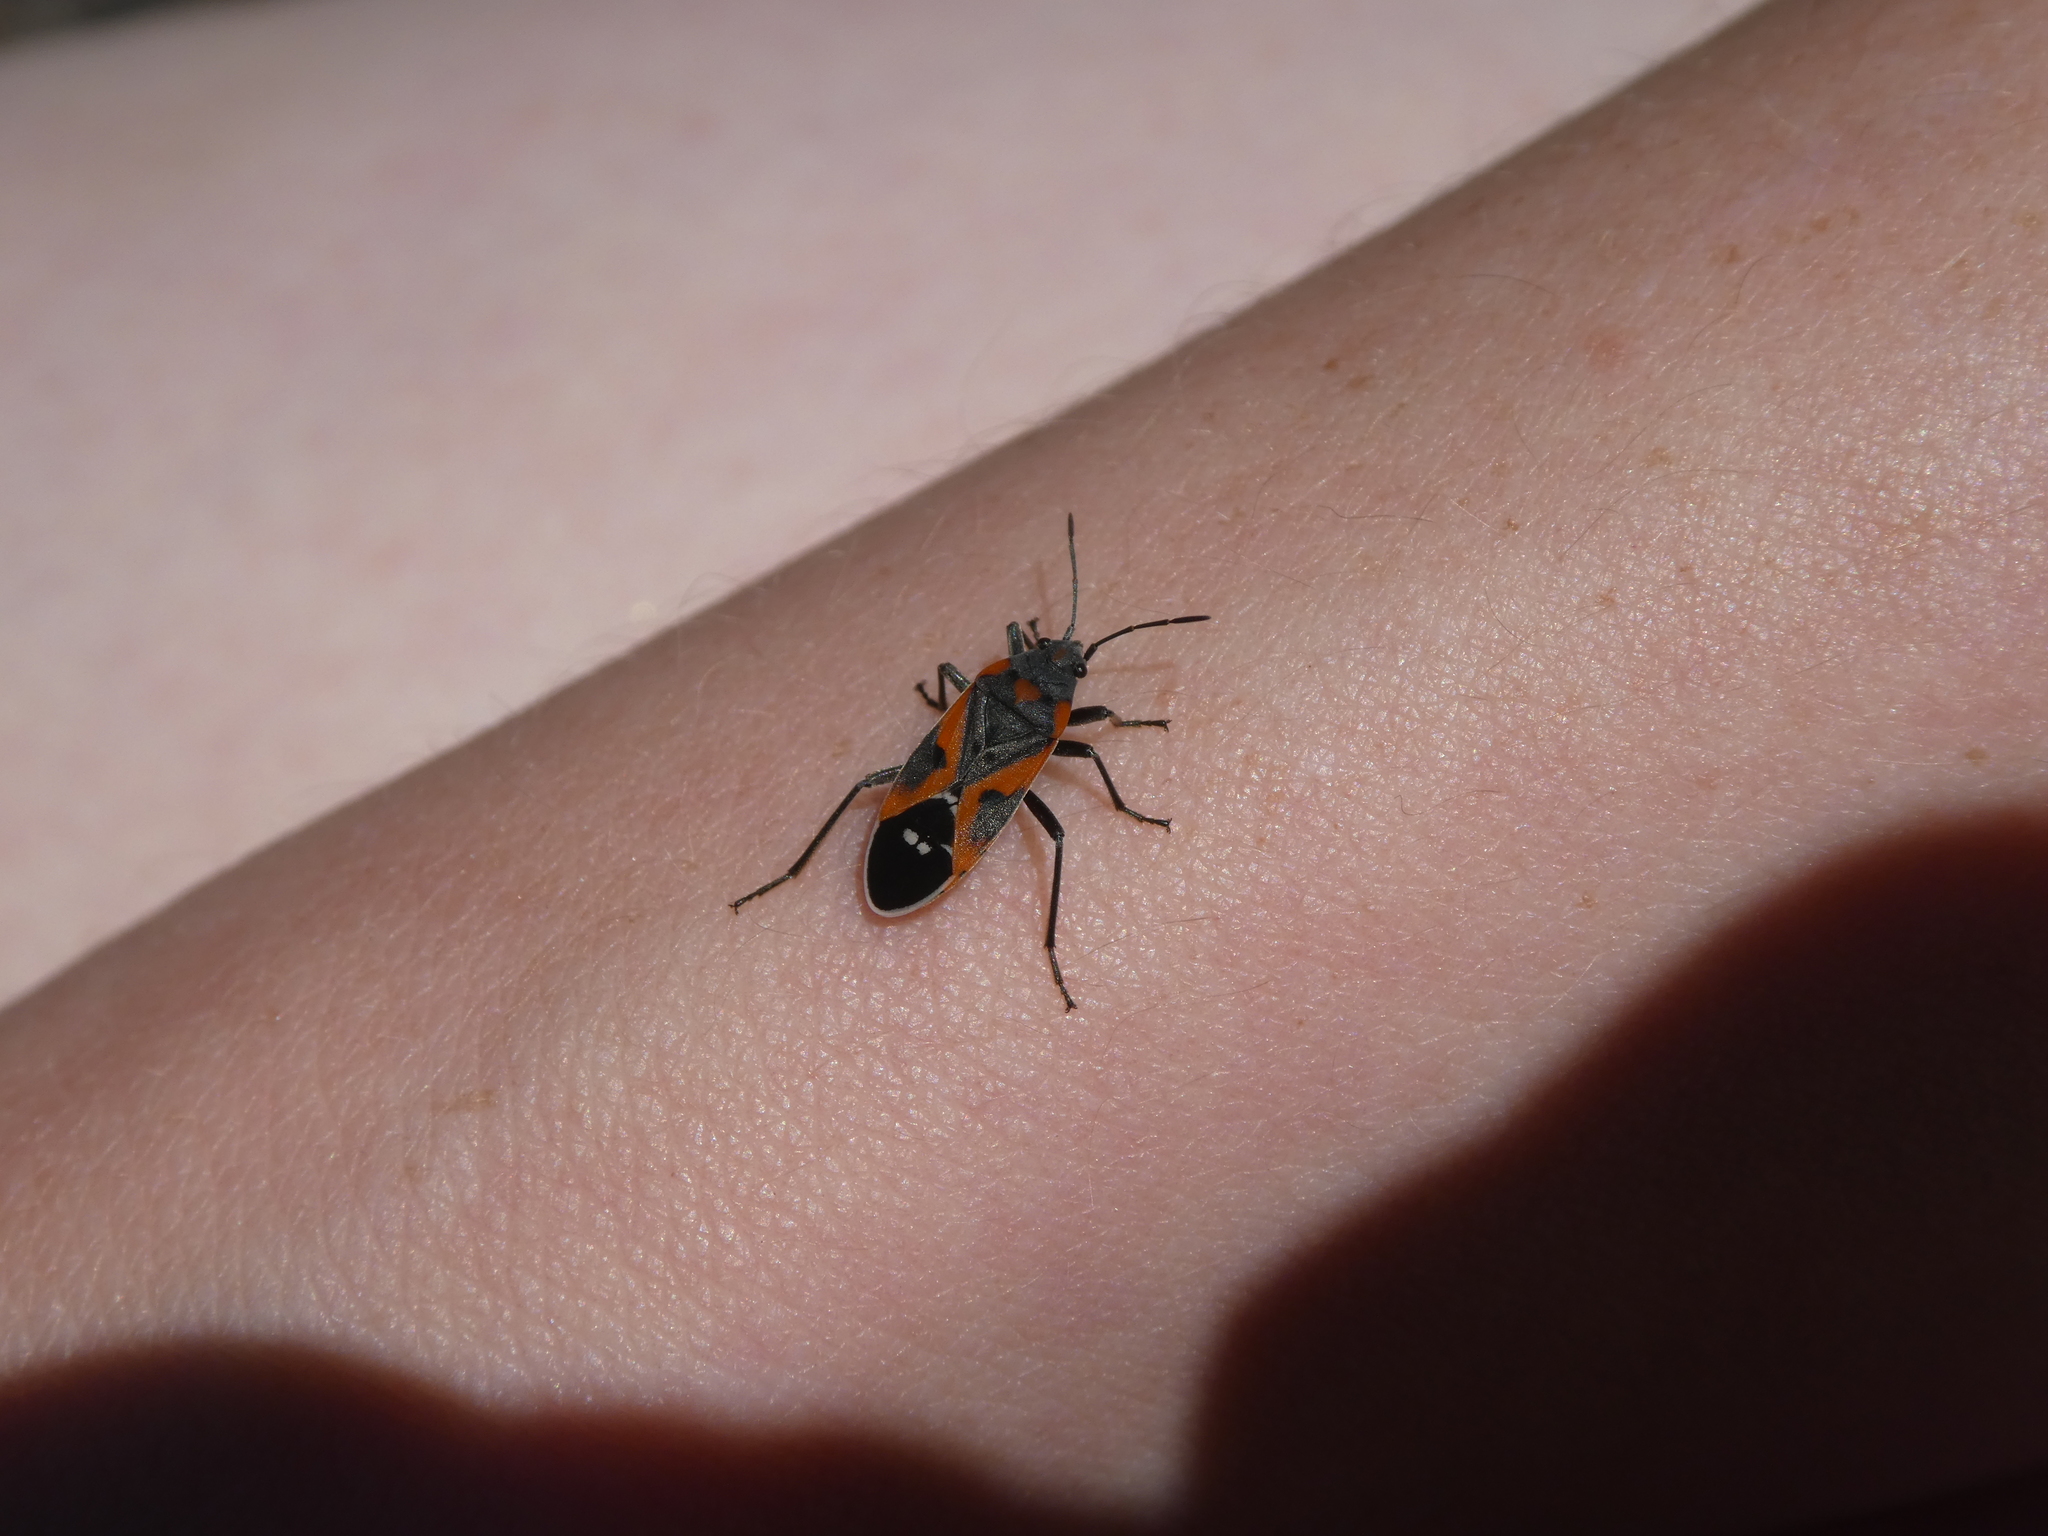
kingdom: Animalia
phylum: Arthropoda
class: Insecta
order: Hemiptera
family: Lygaeidae
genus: Lygaeus
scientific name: Lygaeus kalmii
